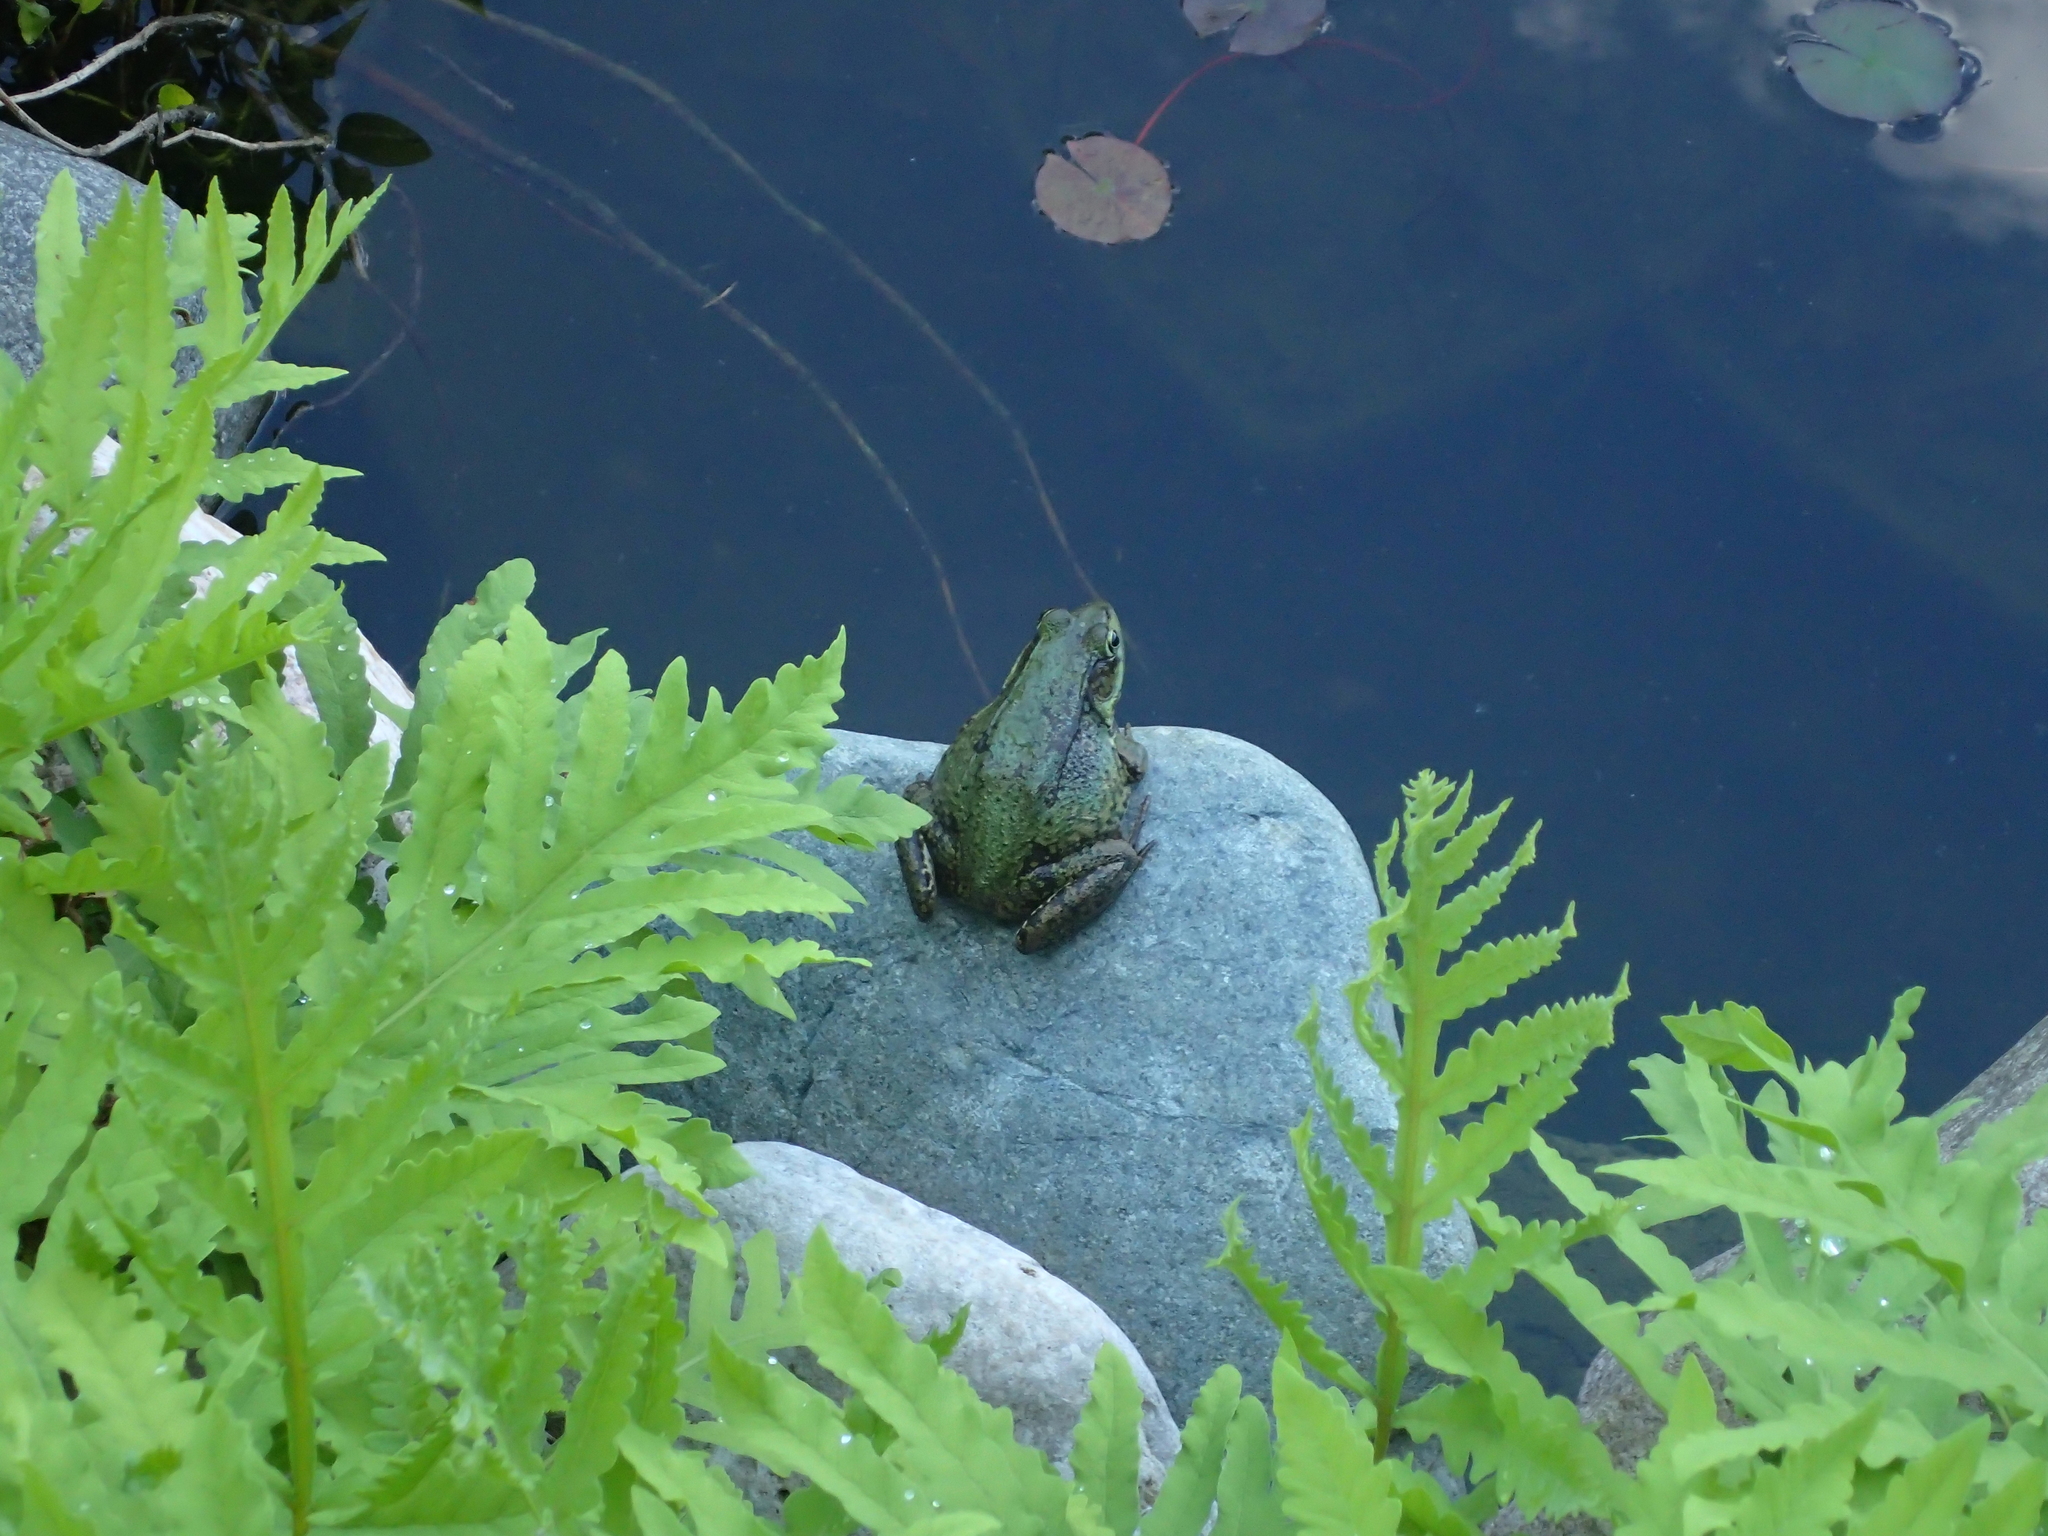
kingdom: Animalia
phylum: Chordata
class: Amphibia
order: Anura
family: Ranidae
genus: Lithobates
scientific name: Lithobates clamitans
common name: Green frog
